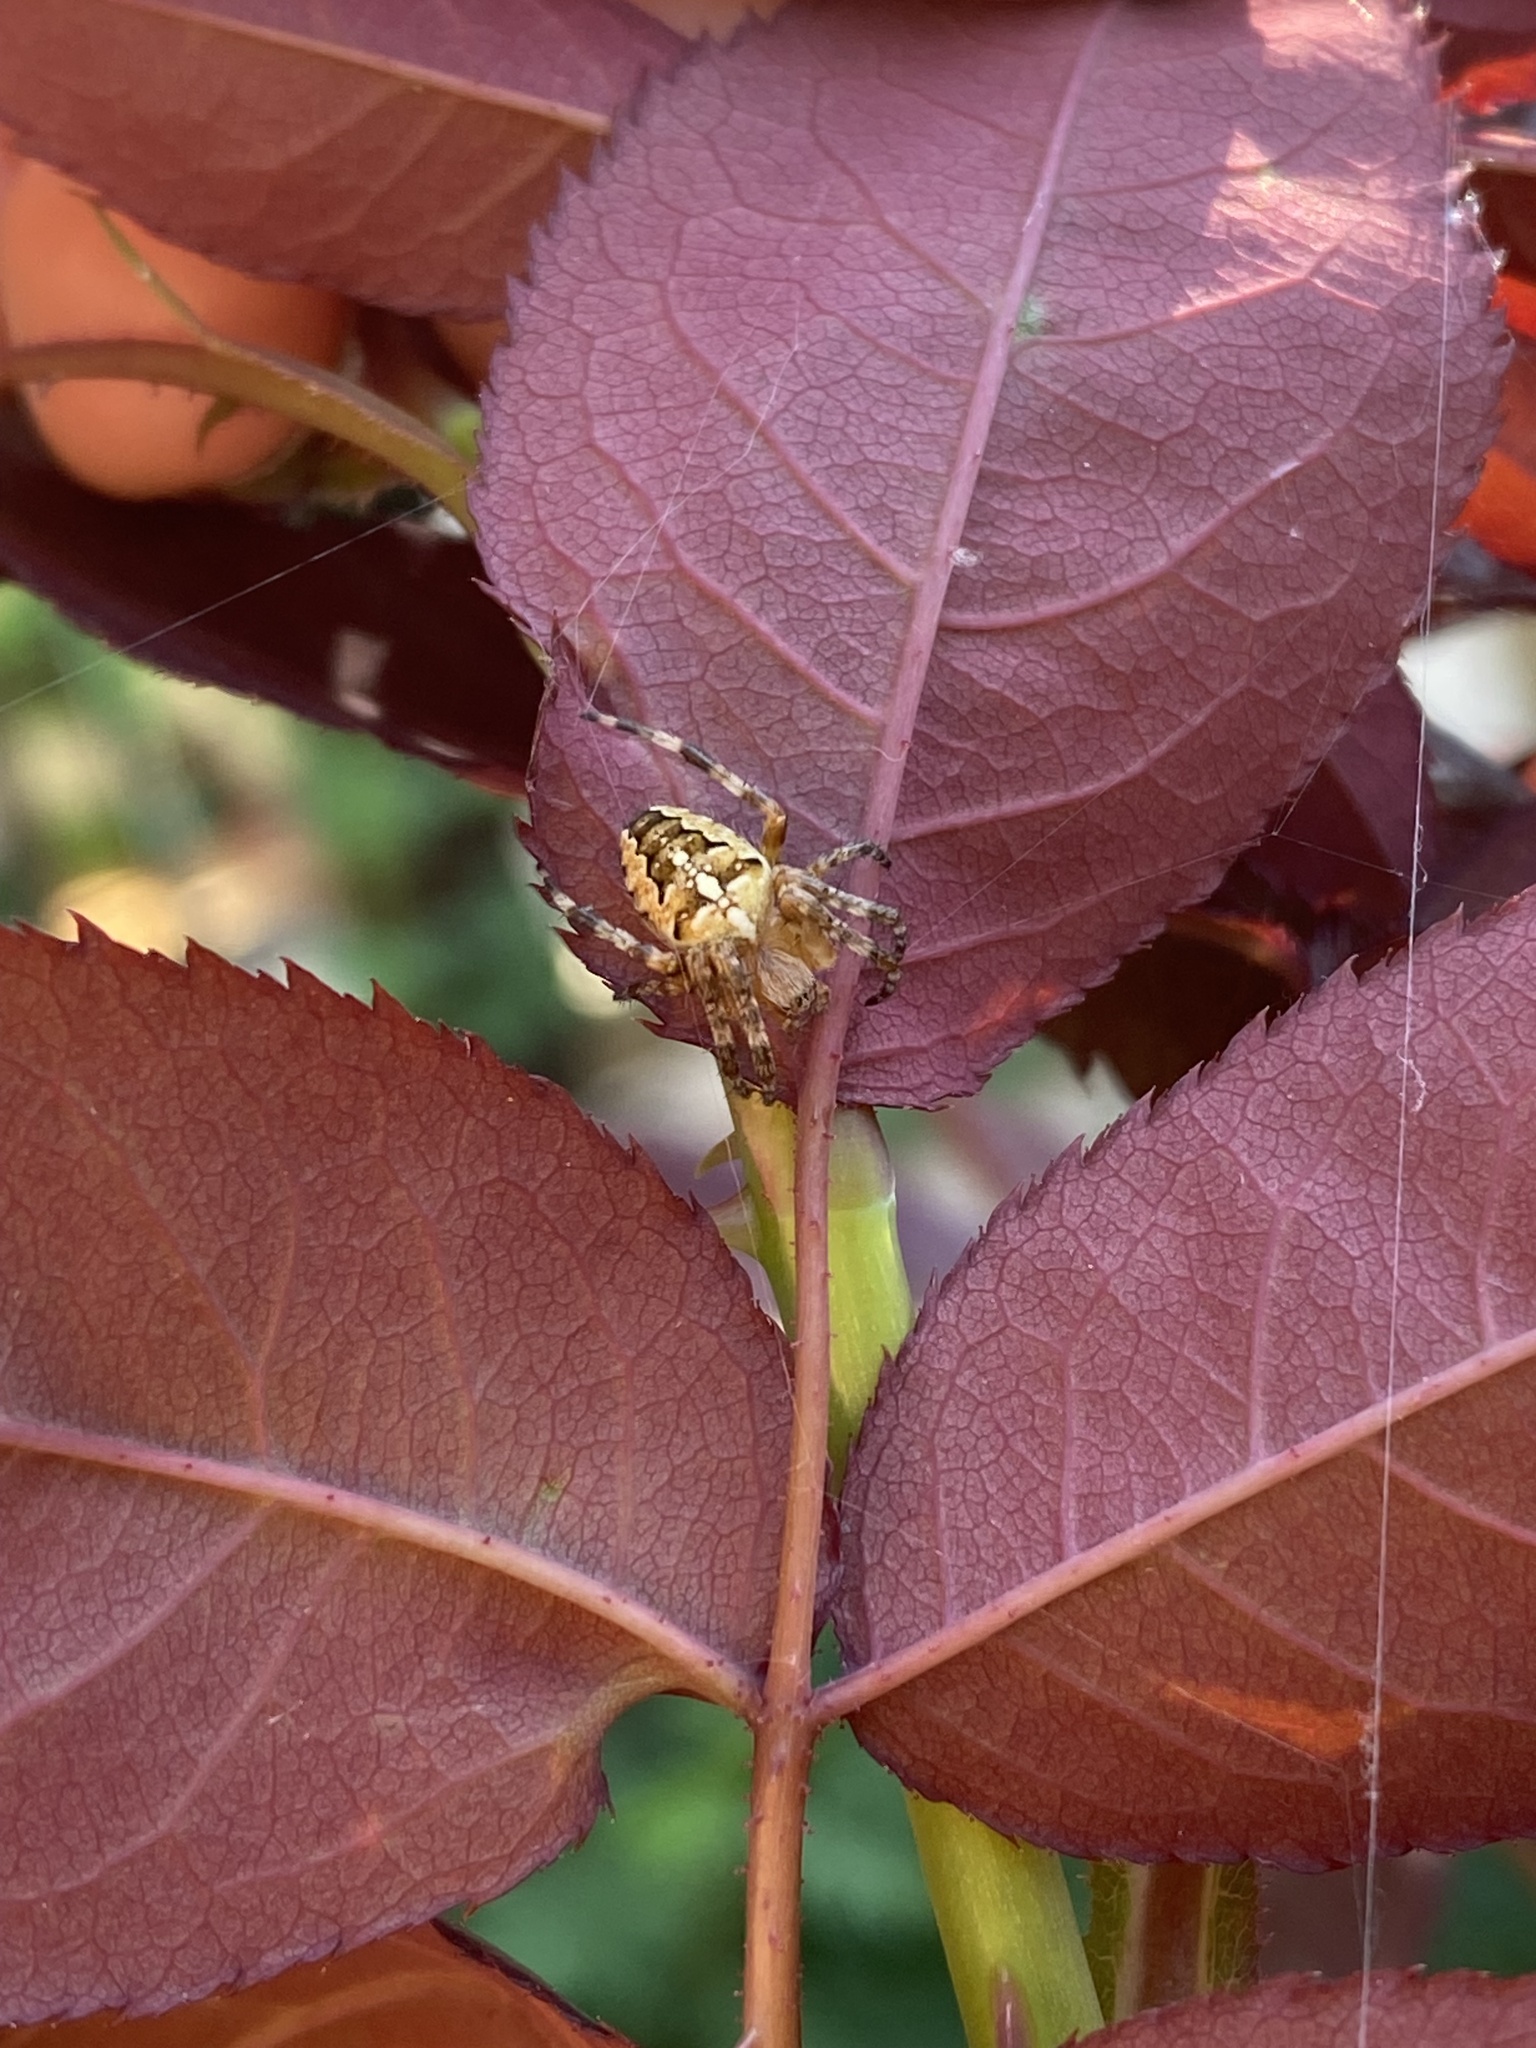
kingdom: Animalia
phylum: Arthropoda
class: Arachnida
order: Araneae
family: Araneidae
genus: Araneus
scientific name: Araneus diadematus
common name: Cross orbweaver
